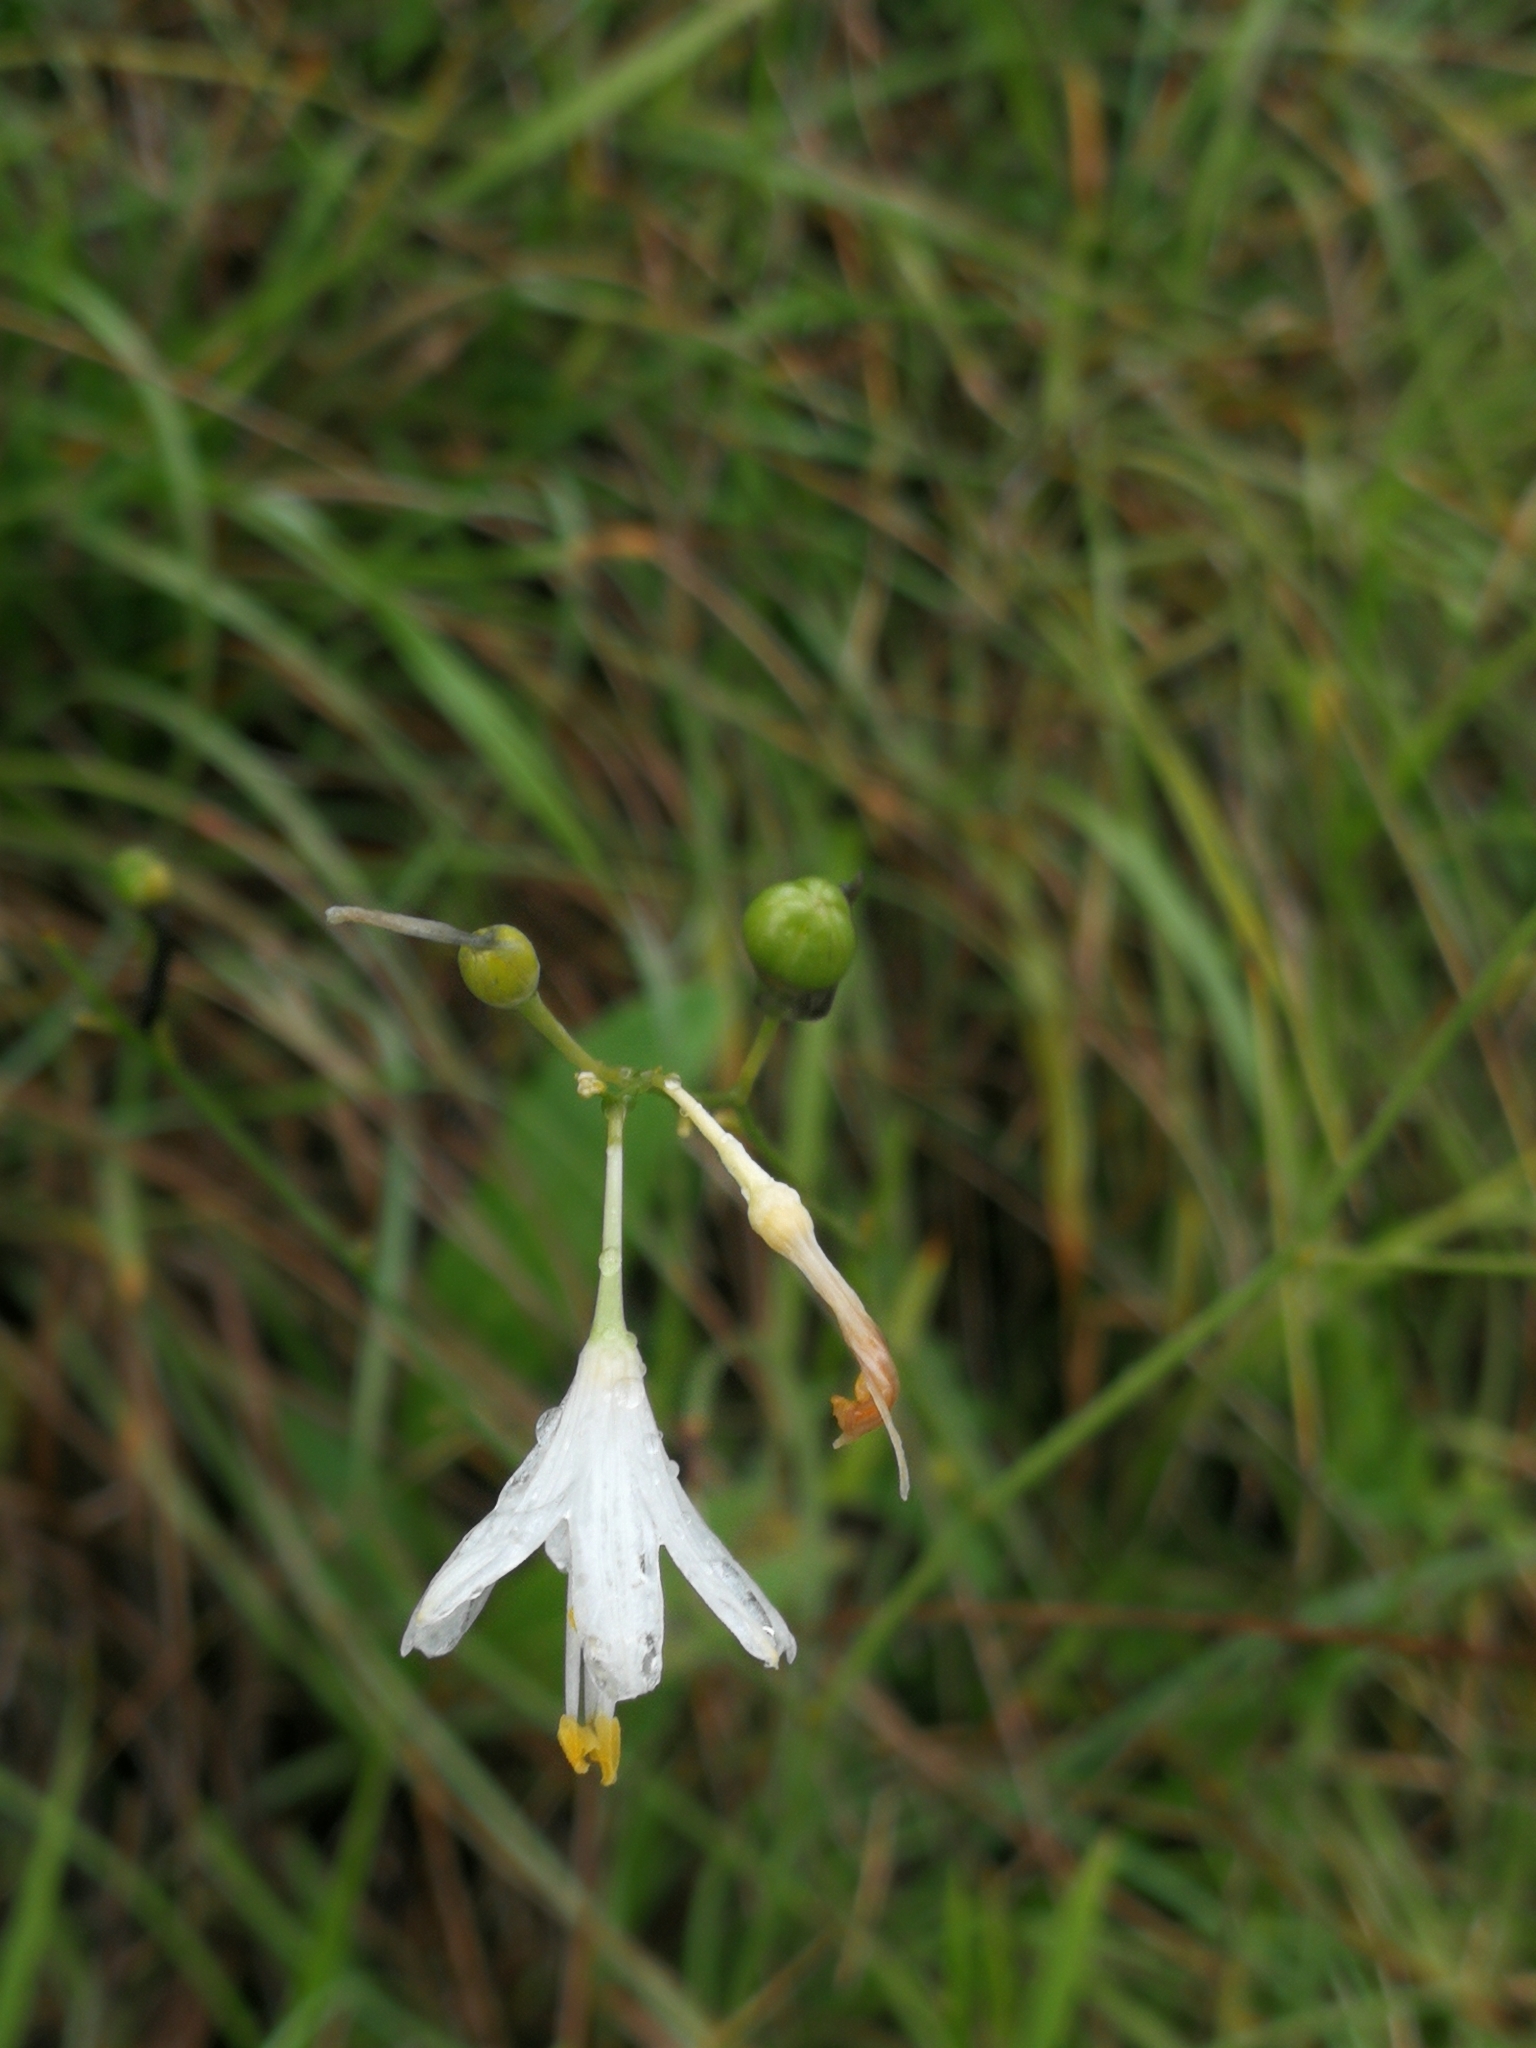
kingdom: Plantae
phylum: Tracheophyta
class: Liliopsida
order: Asparagales
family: Asparagaceae
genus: Anthericum
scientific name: Anthericum liliago
